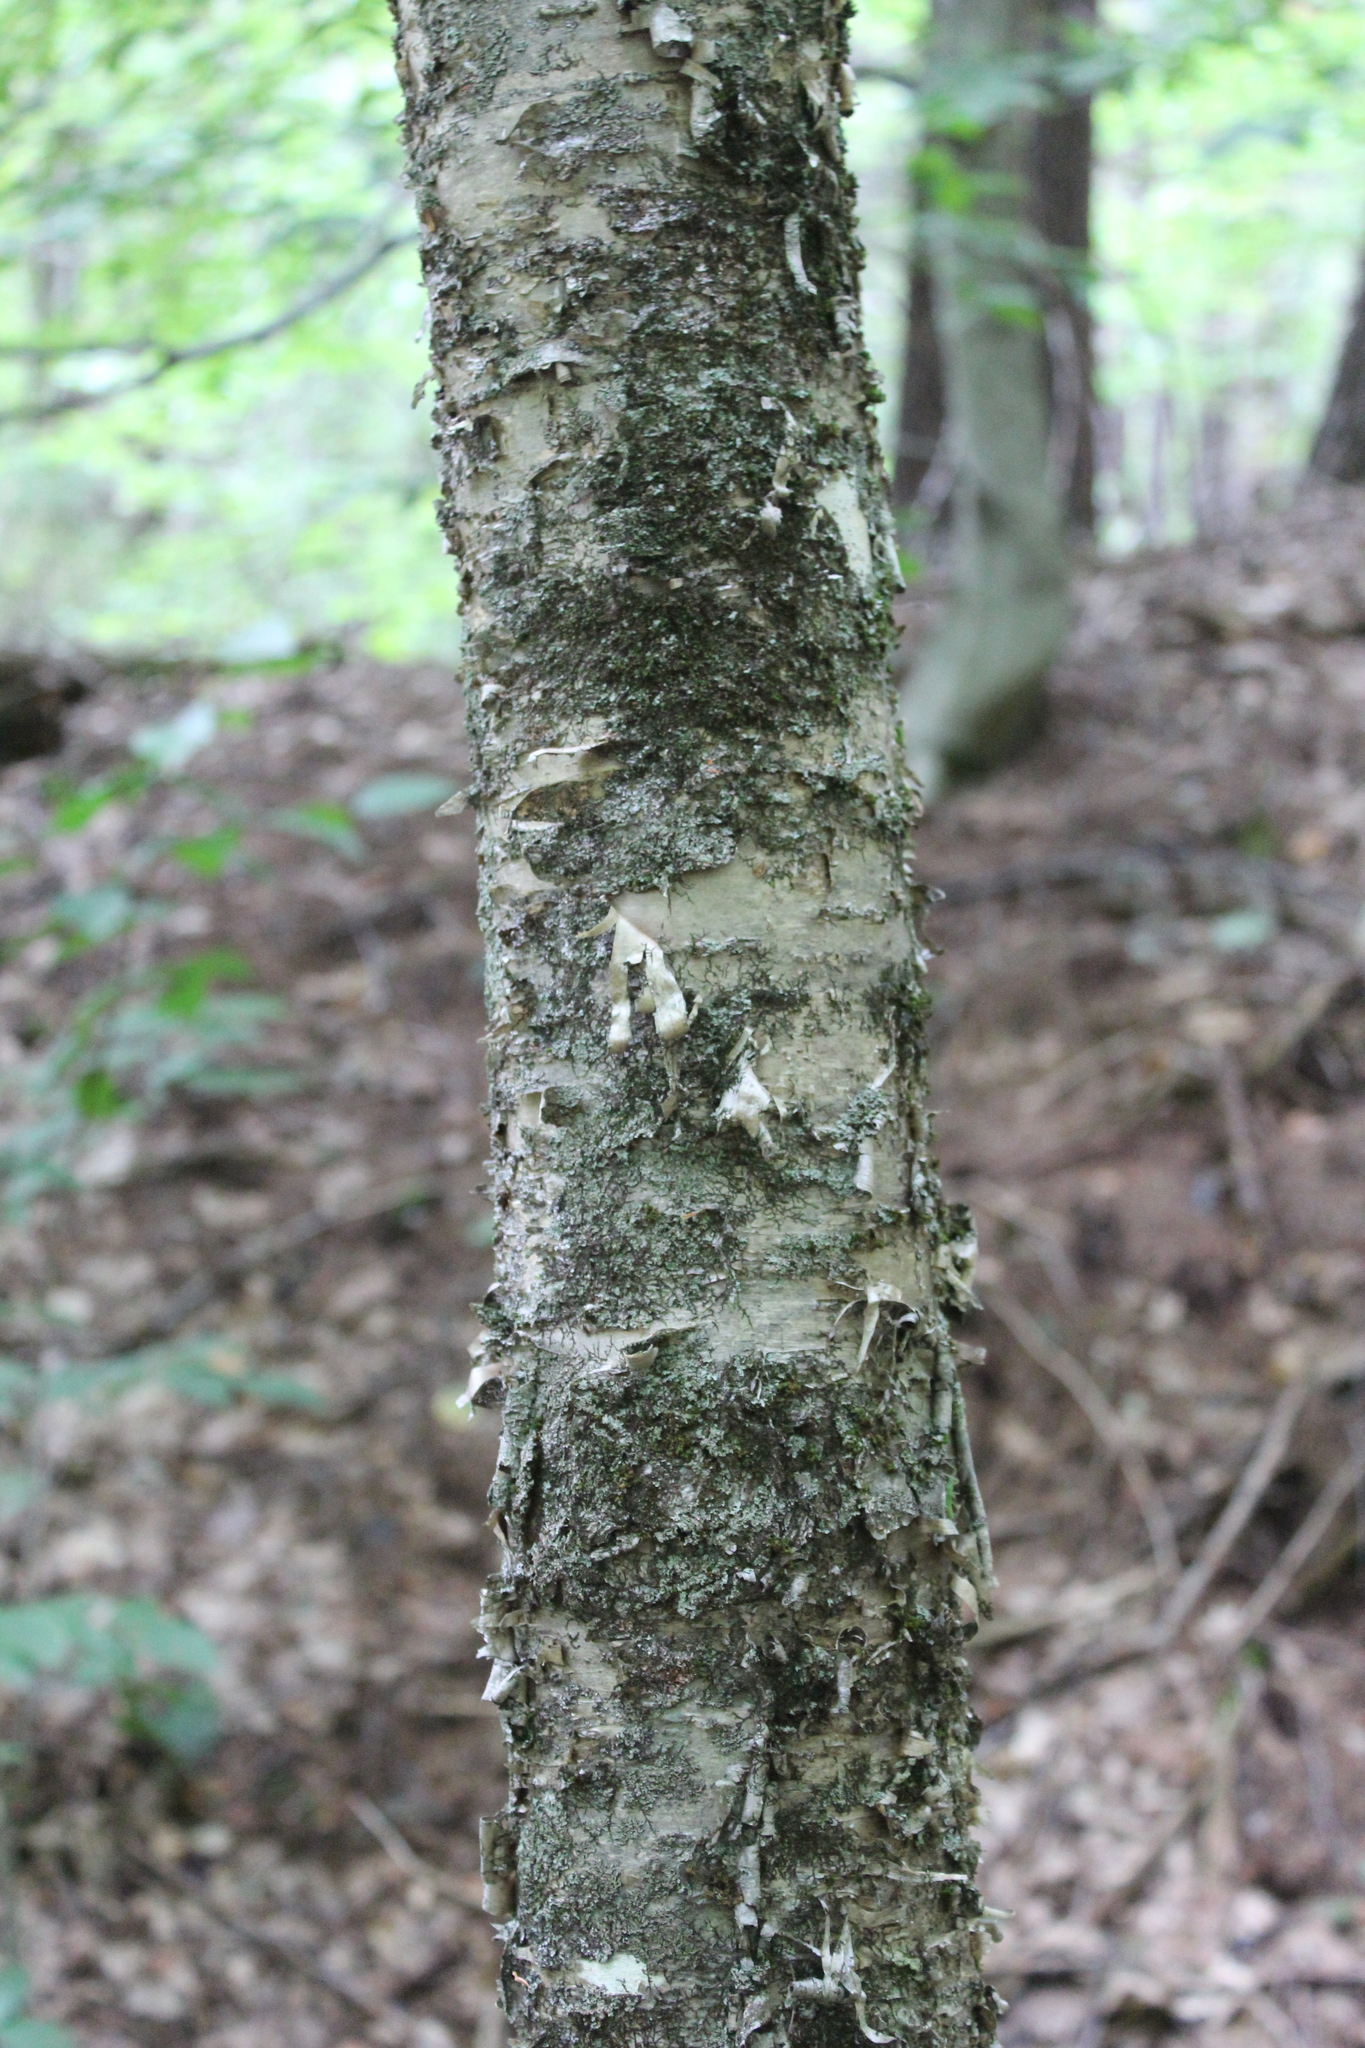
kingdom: Plantae
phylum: Tracheophyta
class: Magnoliopsida
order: Fagales
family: Betulaceae
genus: Betula
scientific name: Betula alleghaniensis
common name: Yellow birch
